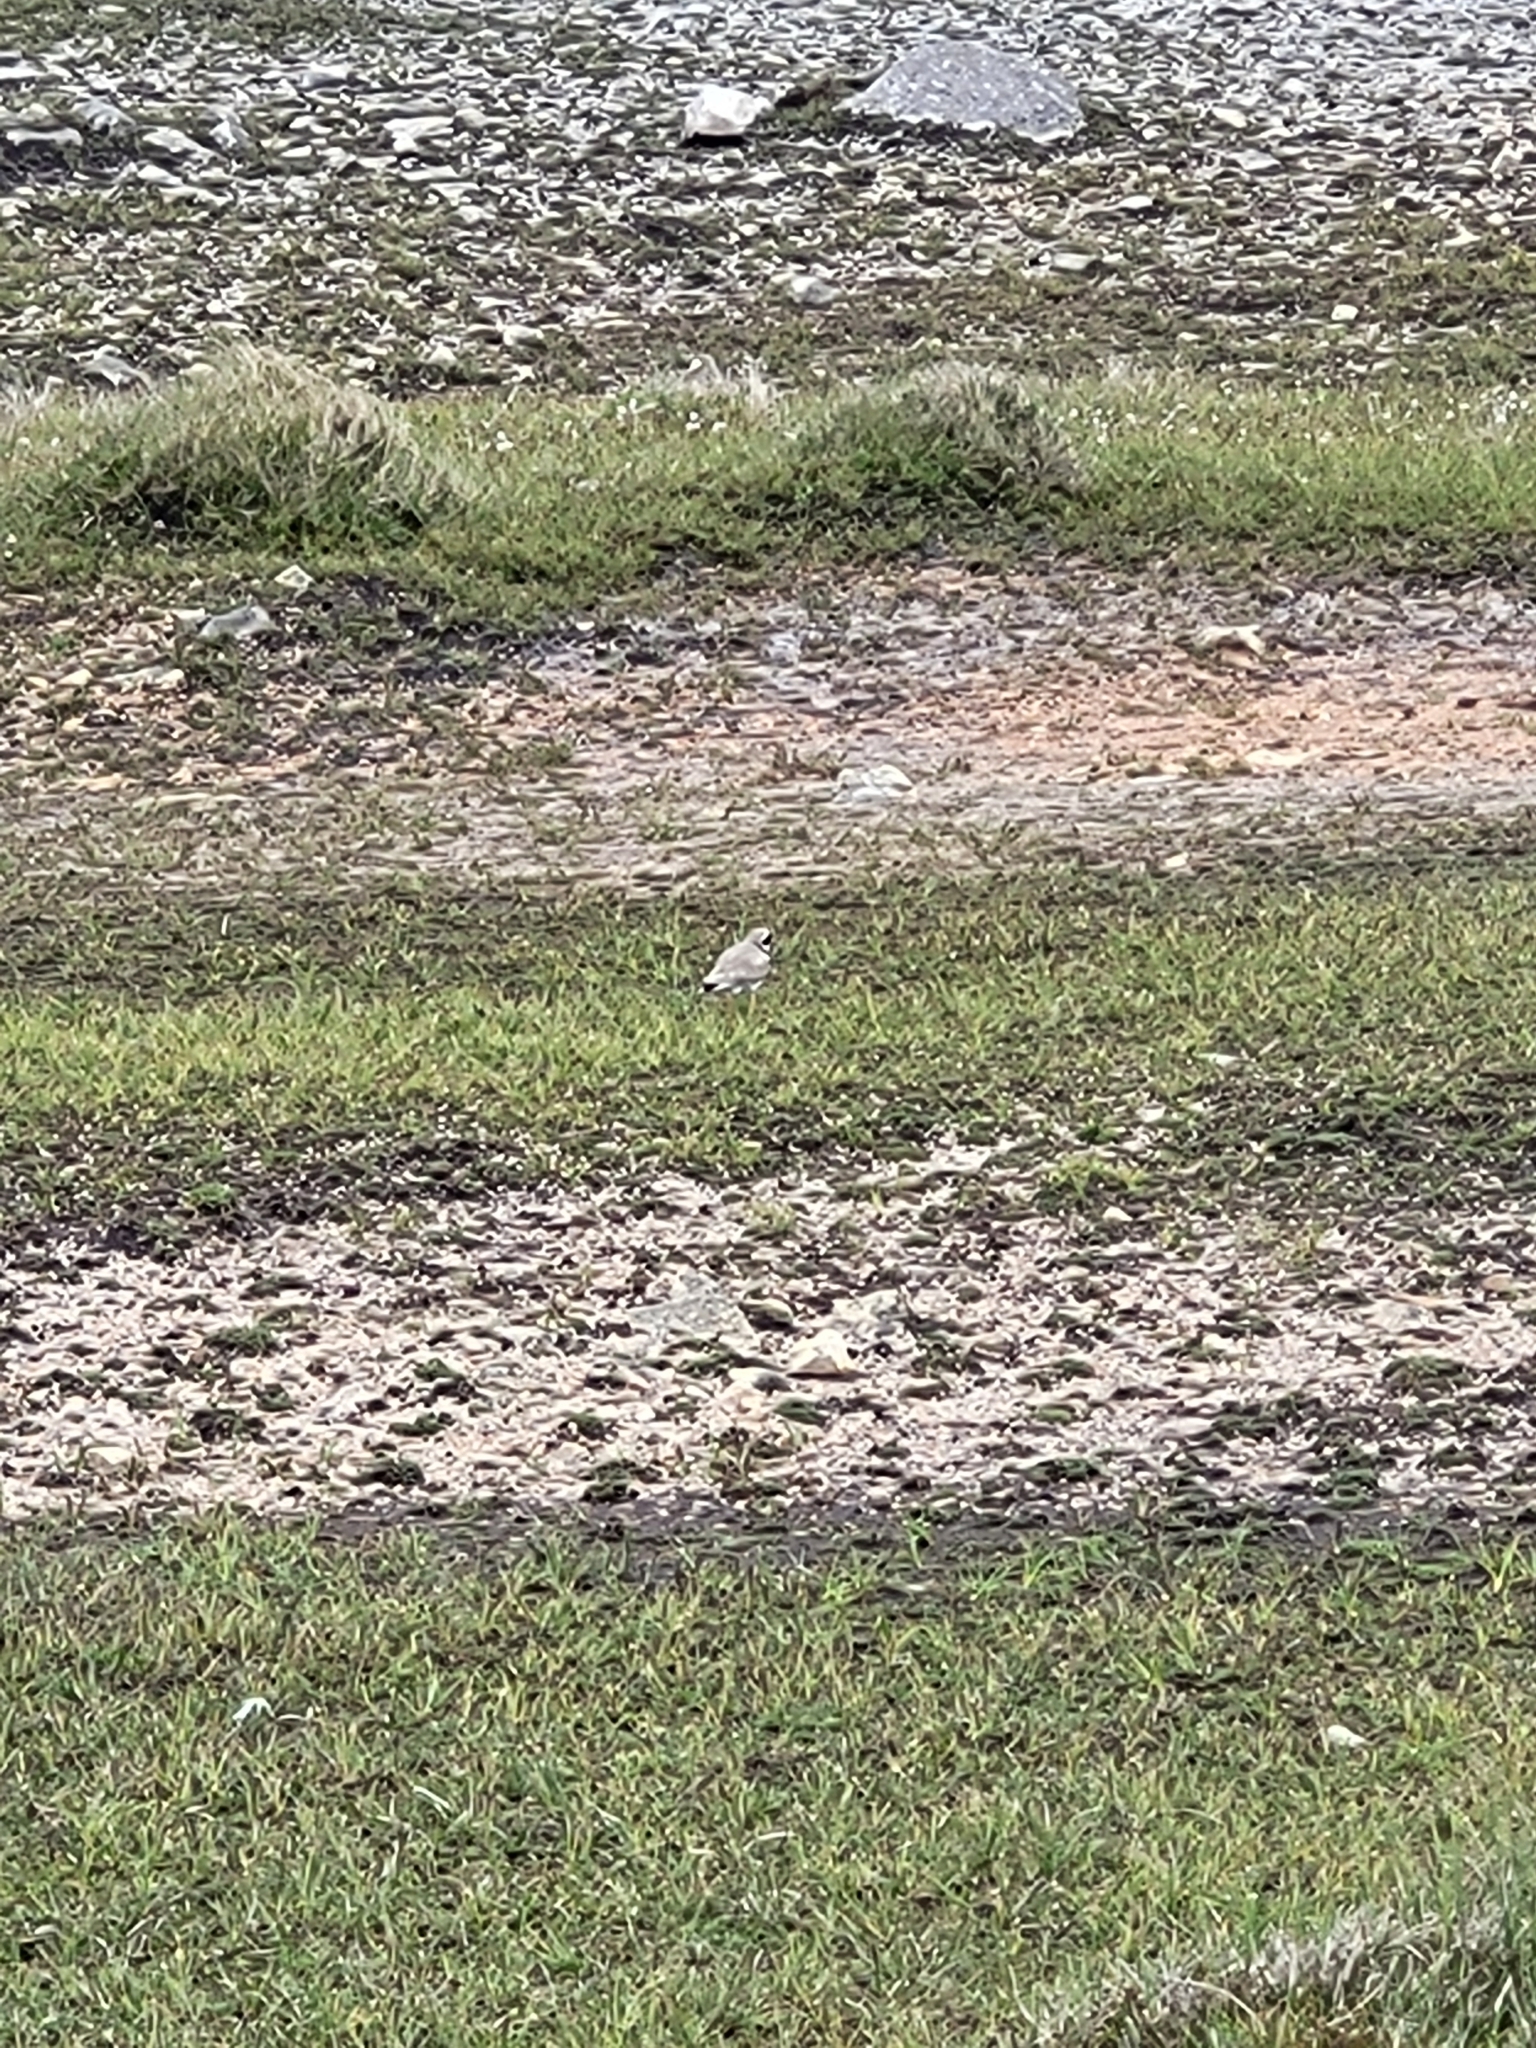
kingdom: Animalia
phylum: Chordata
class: Aves
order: Charadriiformes
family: Charadriidae
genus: Charadrius
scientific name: Charadrius hiaticula
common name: Common ringed plover
